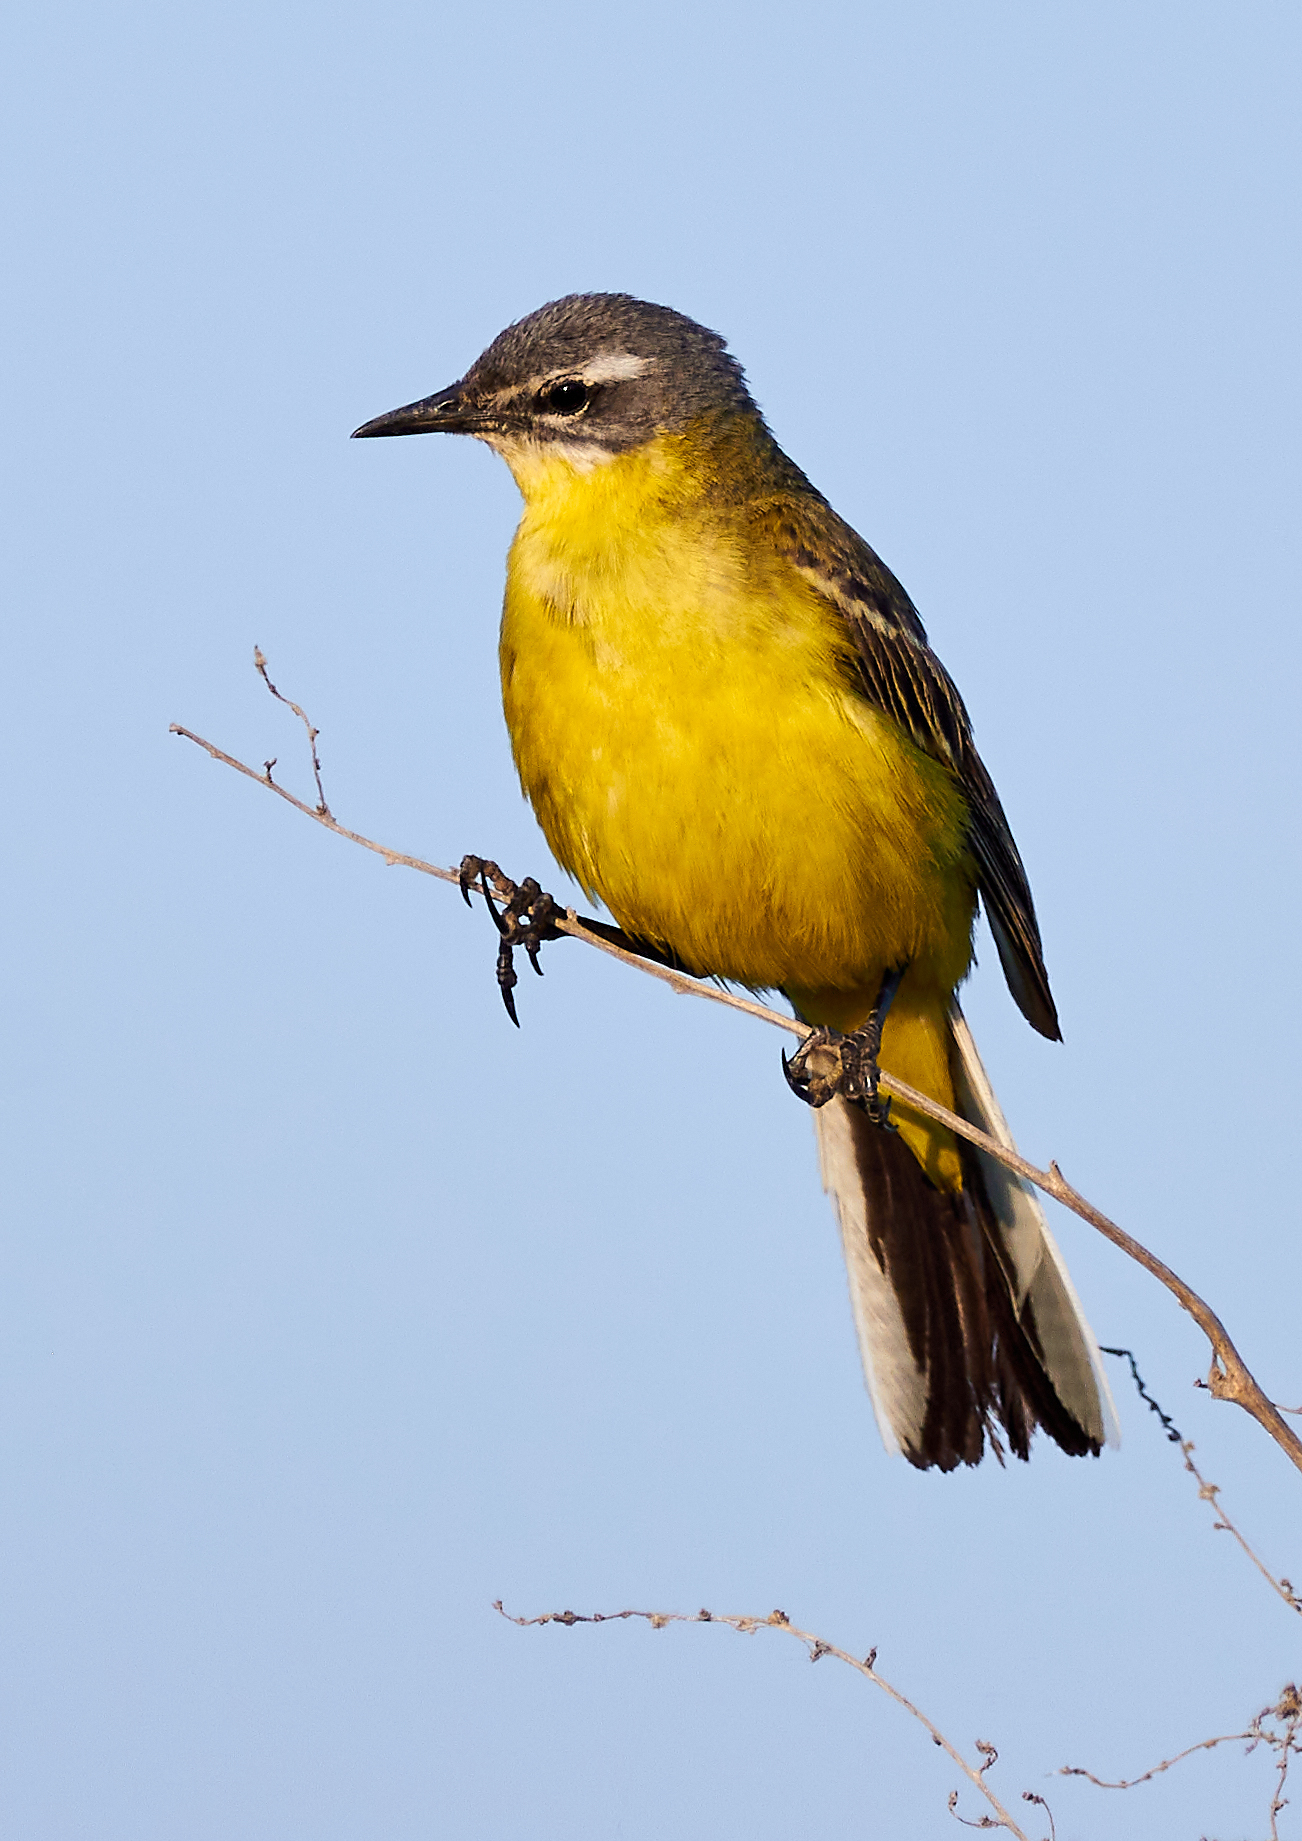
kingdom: Animalia
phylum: Chordata
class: Aves
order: Passeriformes
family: Motacillidae
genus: Motacilla
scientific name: Motacilla flava
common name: Western yellow wagtail
